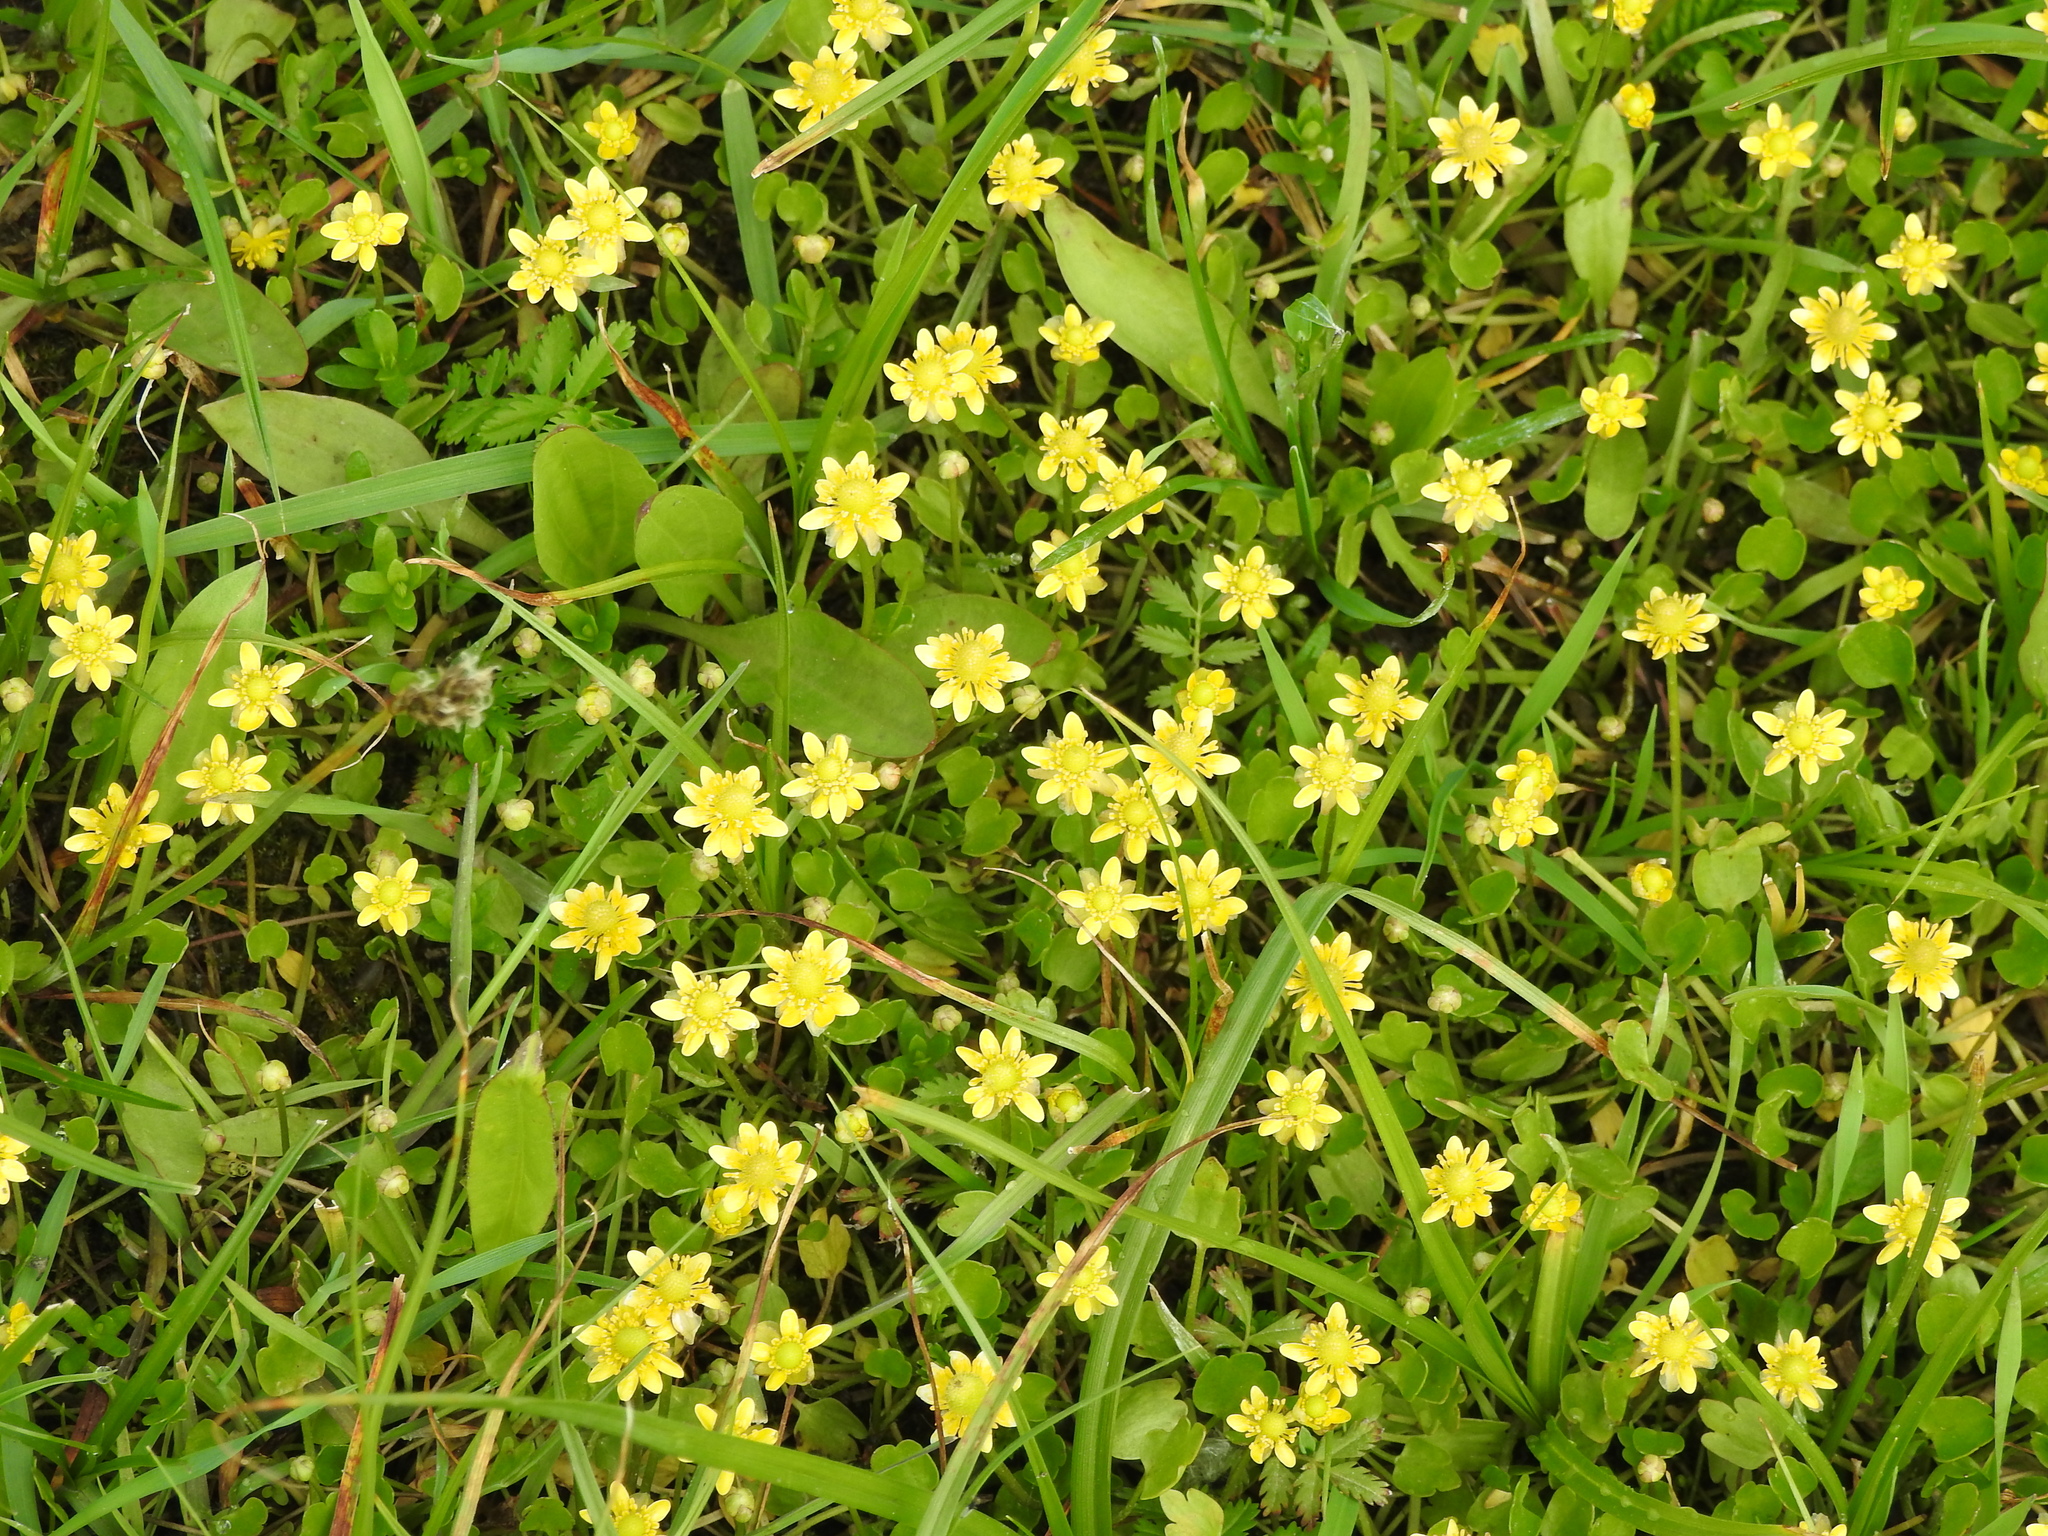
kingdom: Plantae
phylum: Tracheophyta
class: Magnoliopsida
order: Ranunculales
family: Ranunculaceae
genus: Halerpestes
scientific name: Halerpestes sarmentosus
